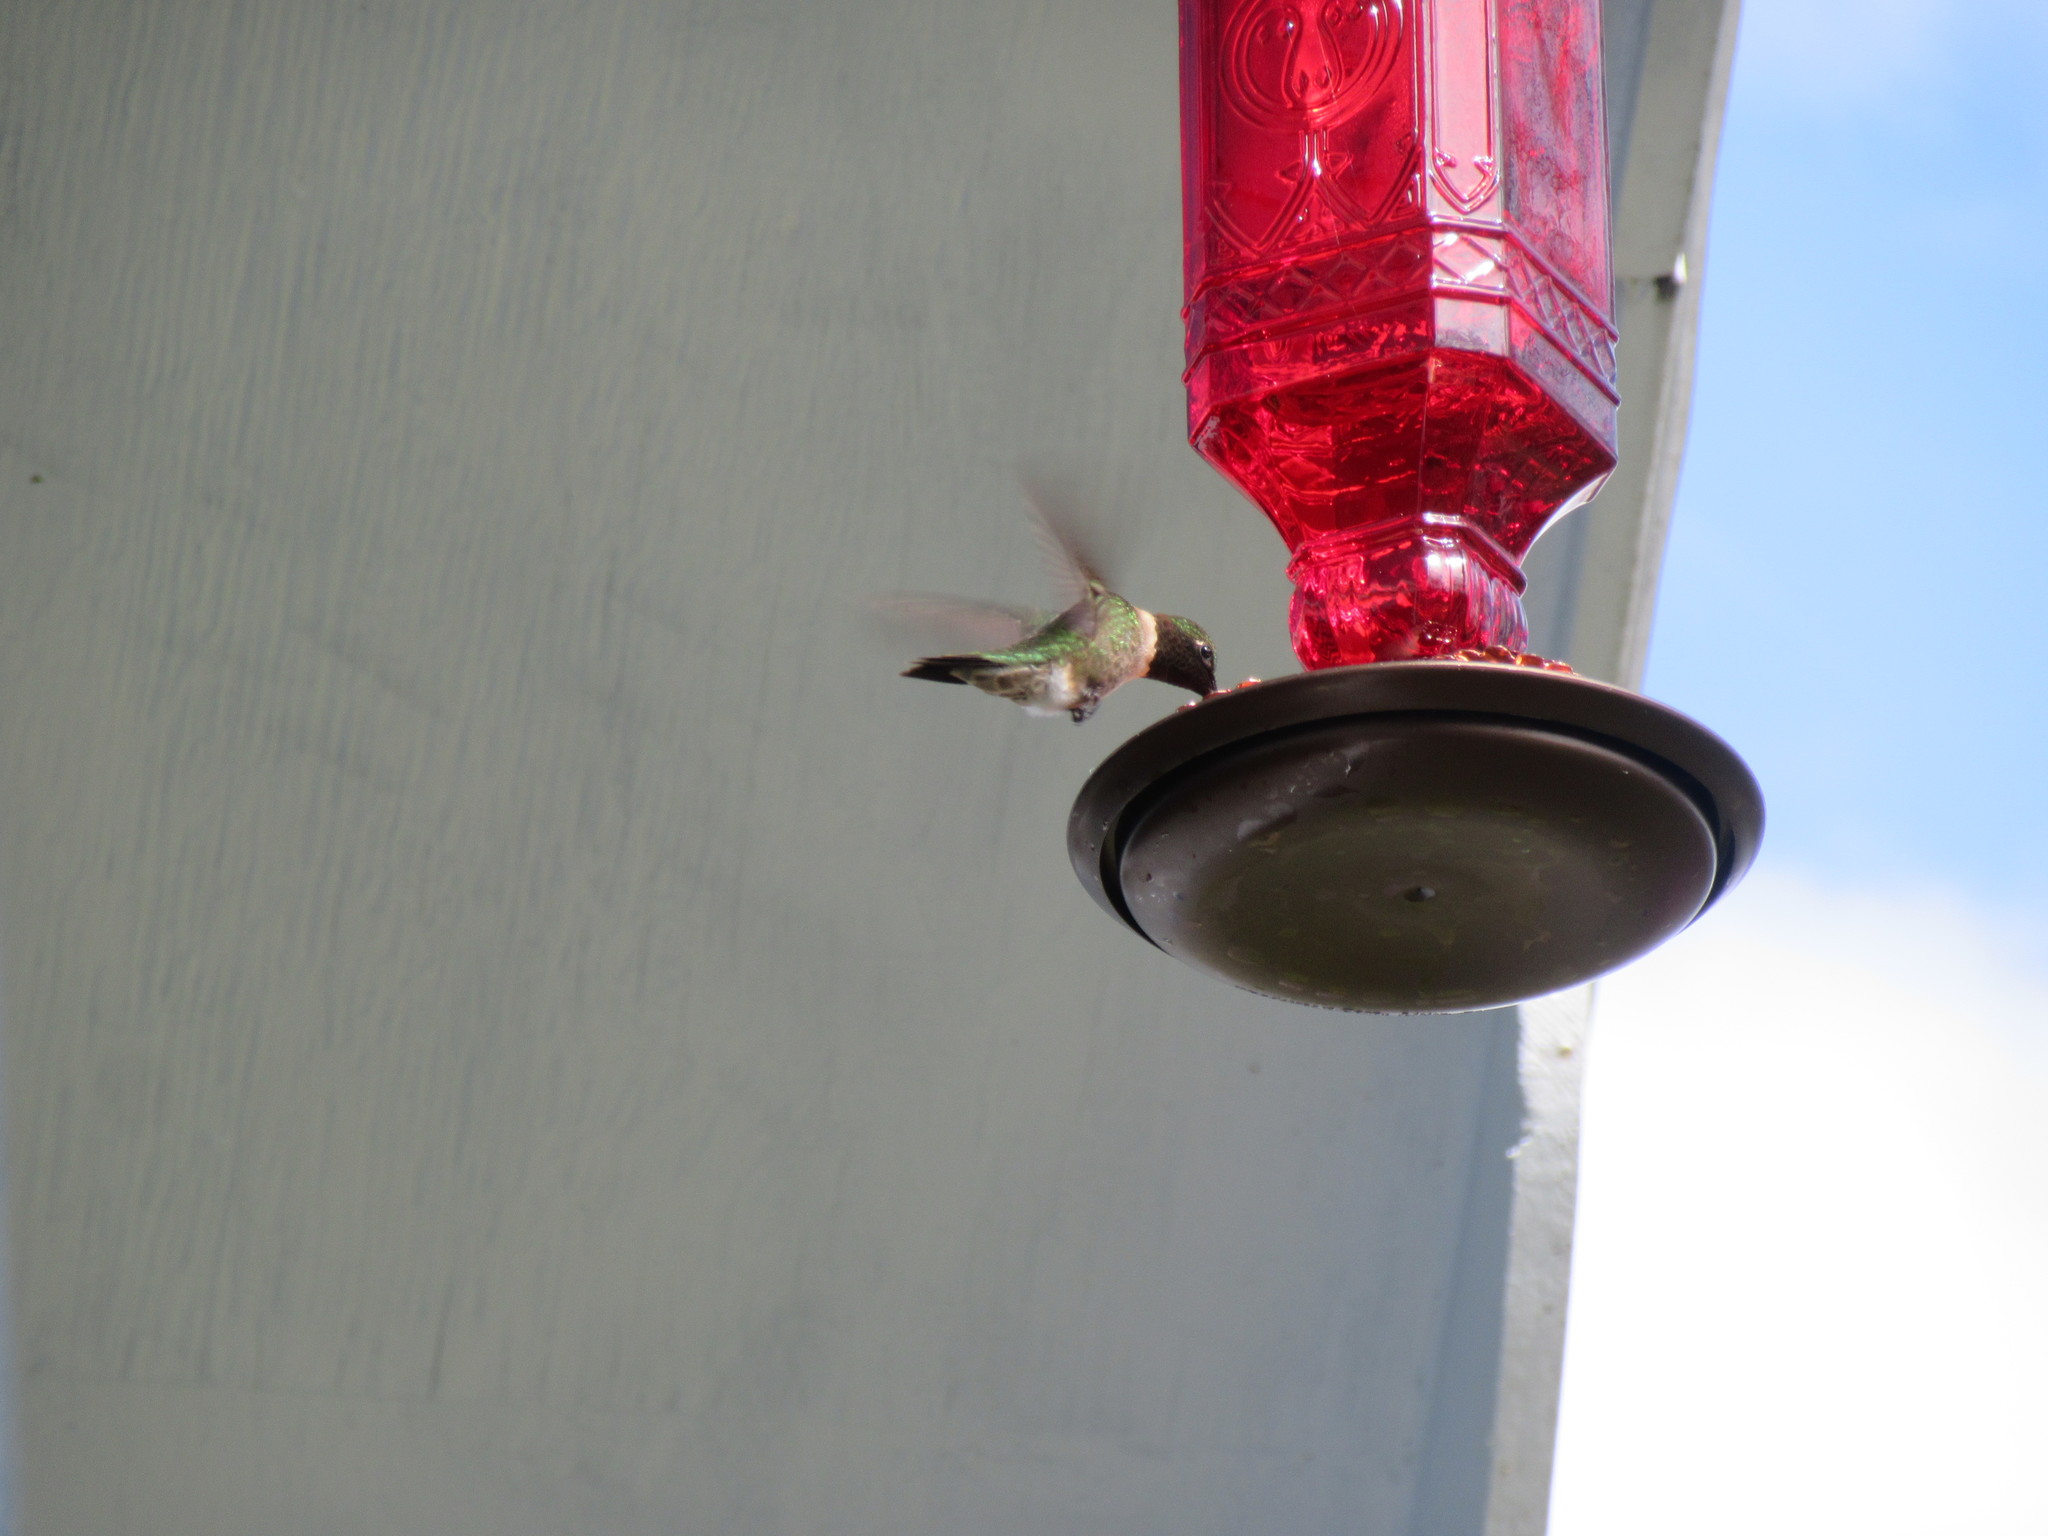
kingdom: Animalia
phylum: Chordata
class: Aves
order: Apodiformes
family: Trochilidae
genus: Archilochus
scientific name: Archilochus colubris
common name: Ruby-throated hummingbird
